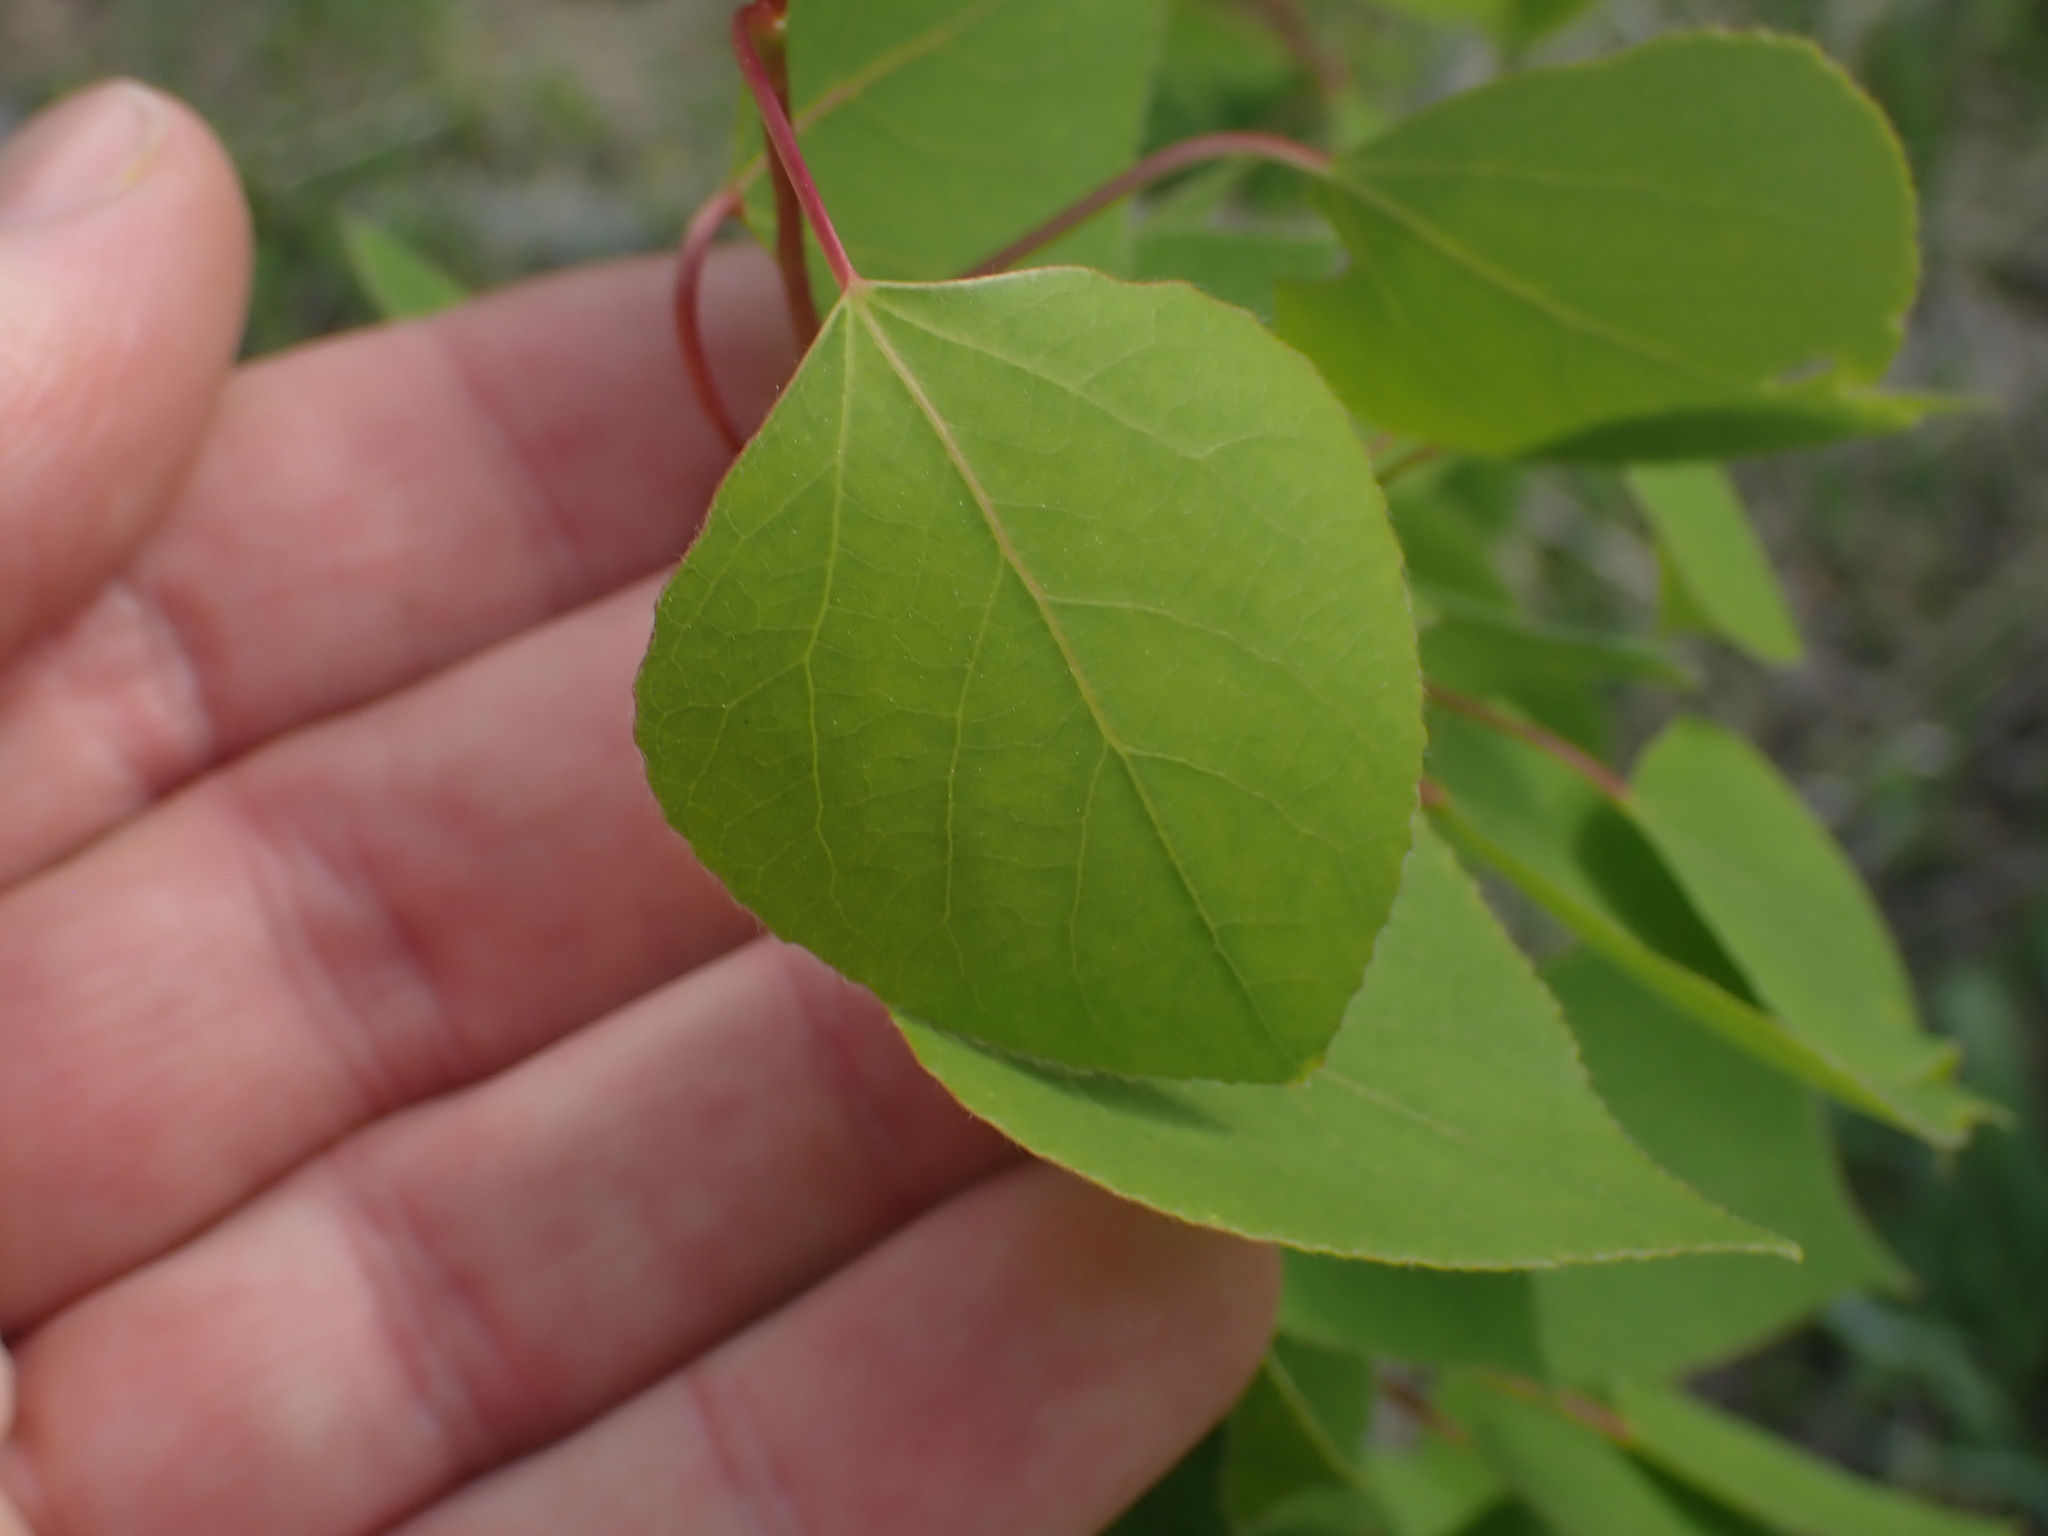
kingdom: Plantae
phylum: Tracheophyta
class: Magnoliopsida
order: Malpighiales
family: Salicaceae
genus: Populus
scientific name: Populus tremuloides
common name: Quaking aspen
